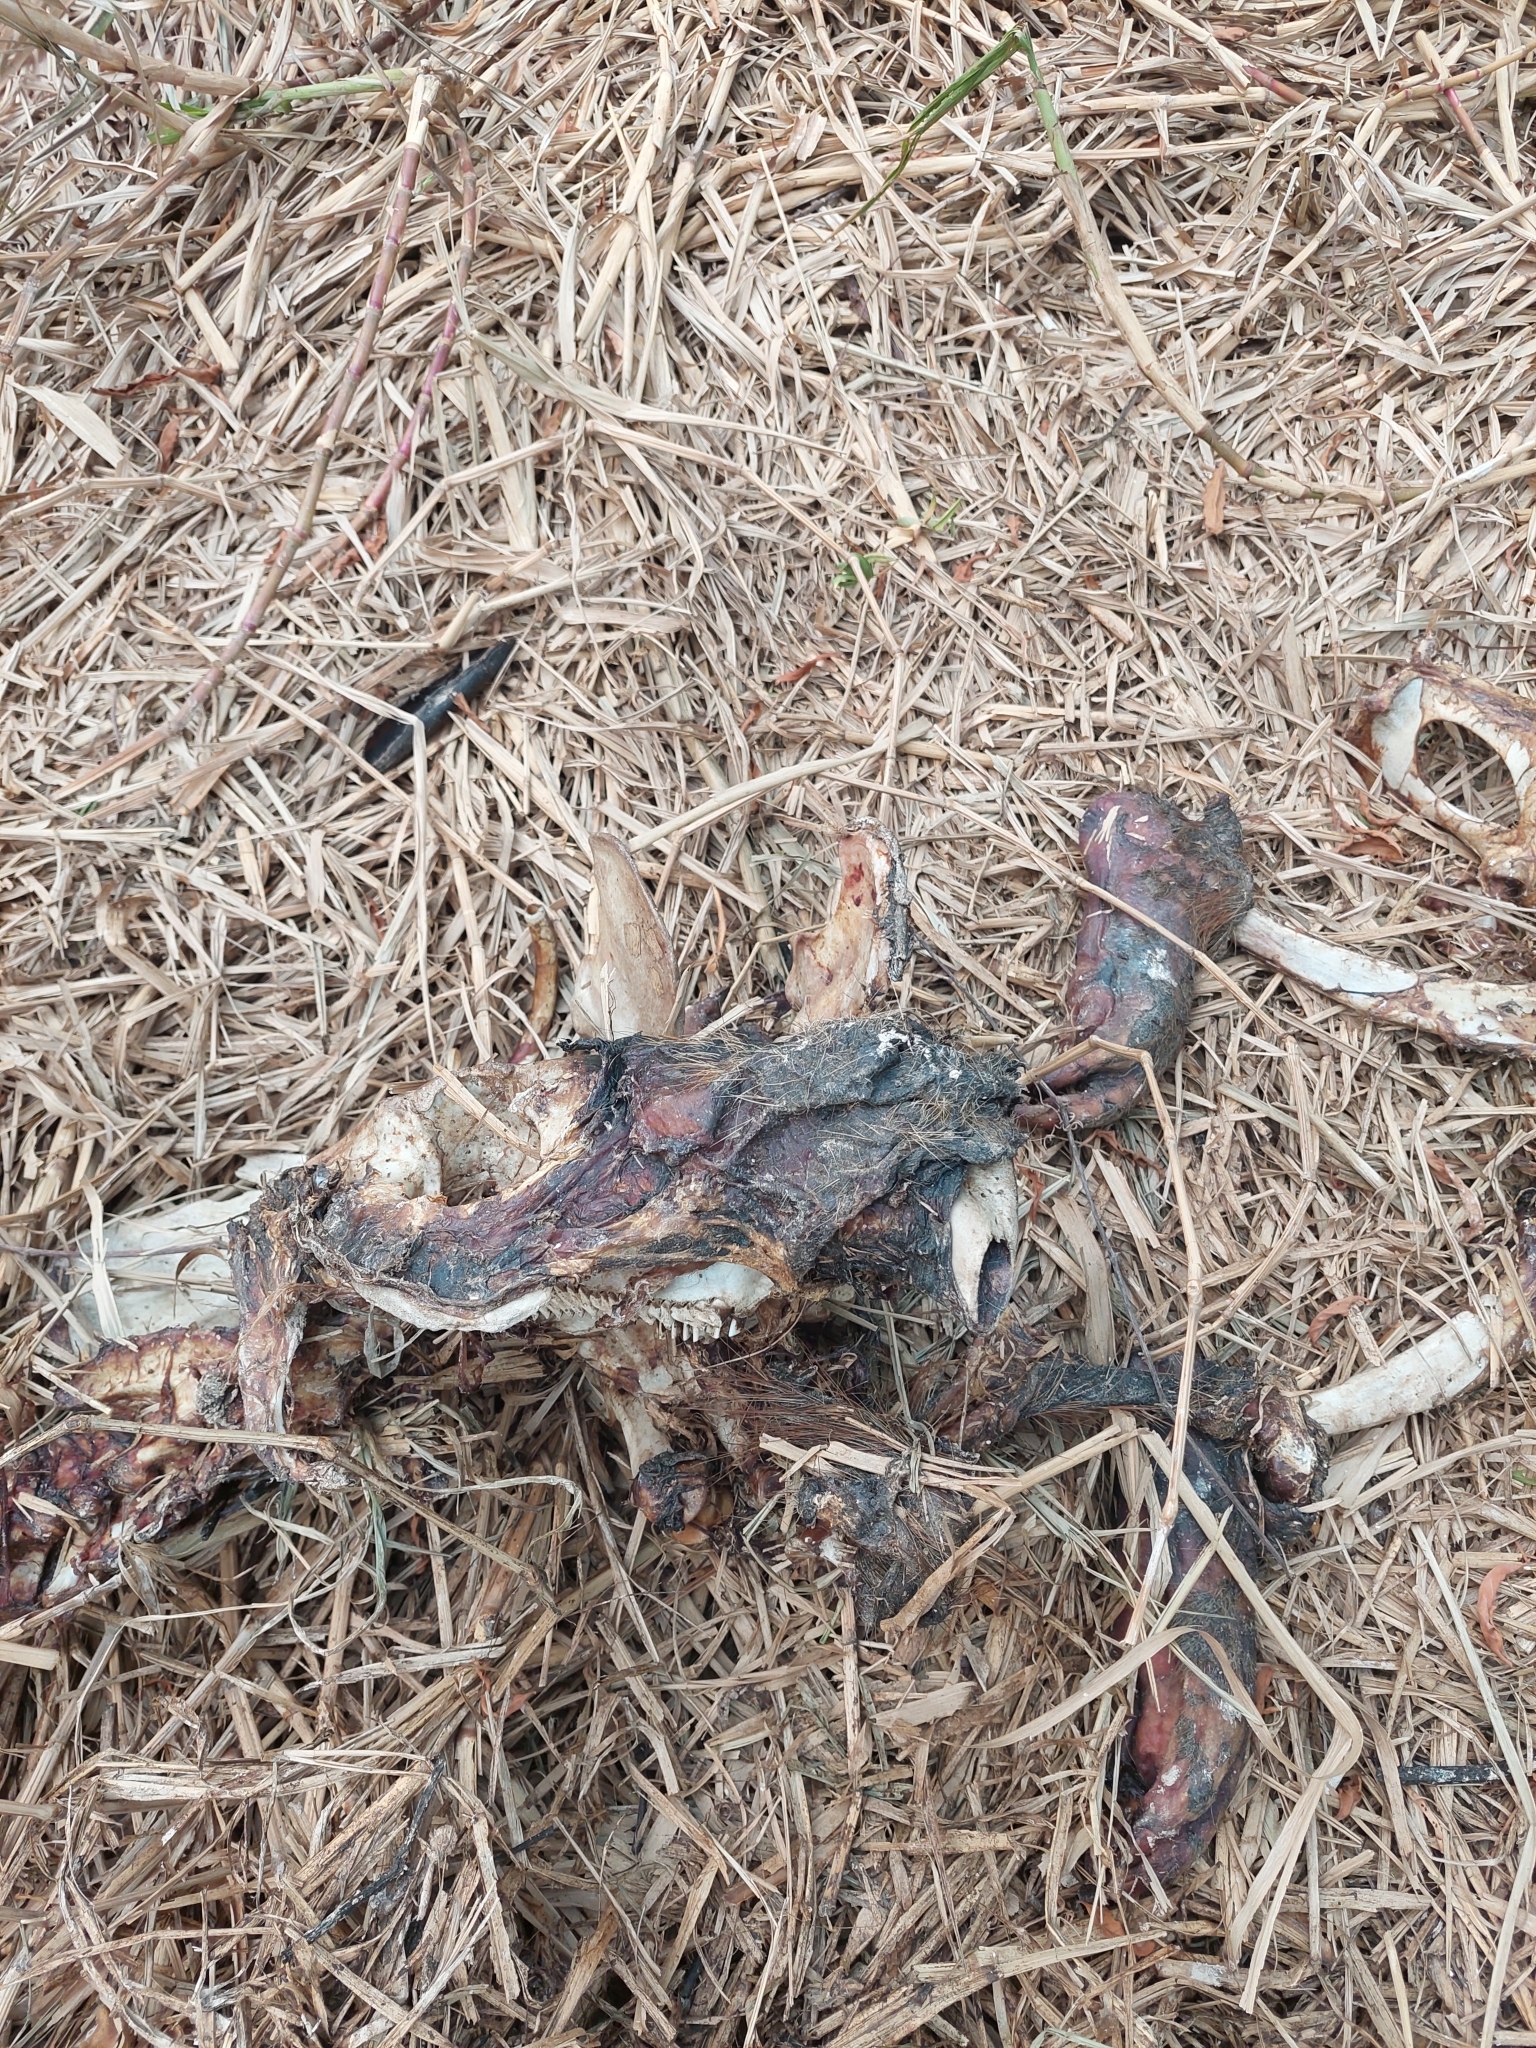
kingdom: Animalia
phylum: Chordata
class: Mammalia
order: Rodentia
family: Caviidae
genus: Hydrochoerus
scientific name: Hydrochoerus hydrochaeris
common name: Capybara
